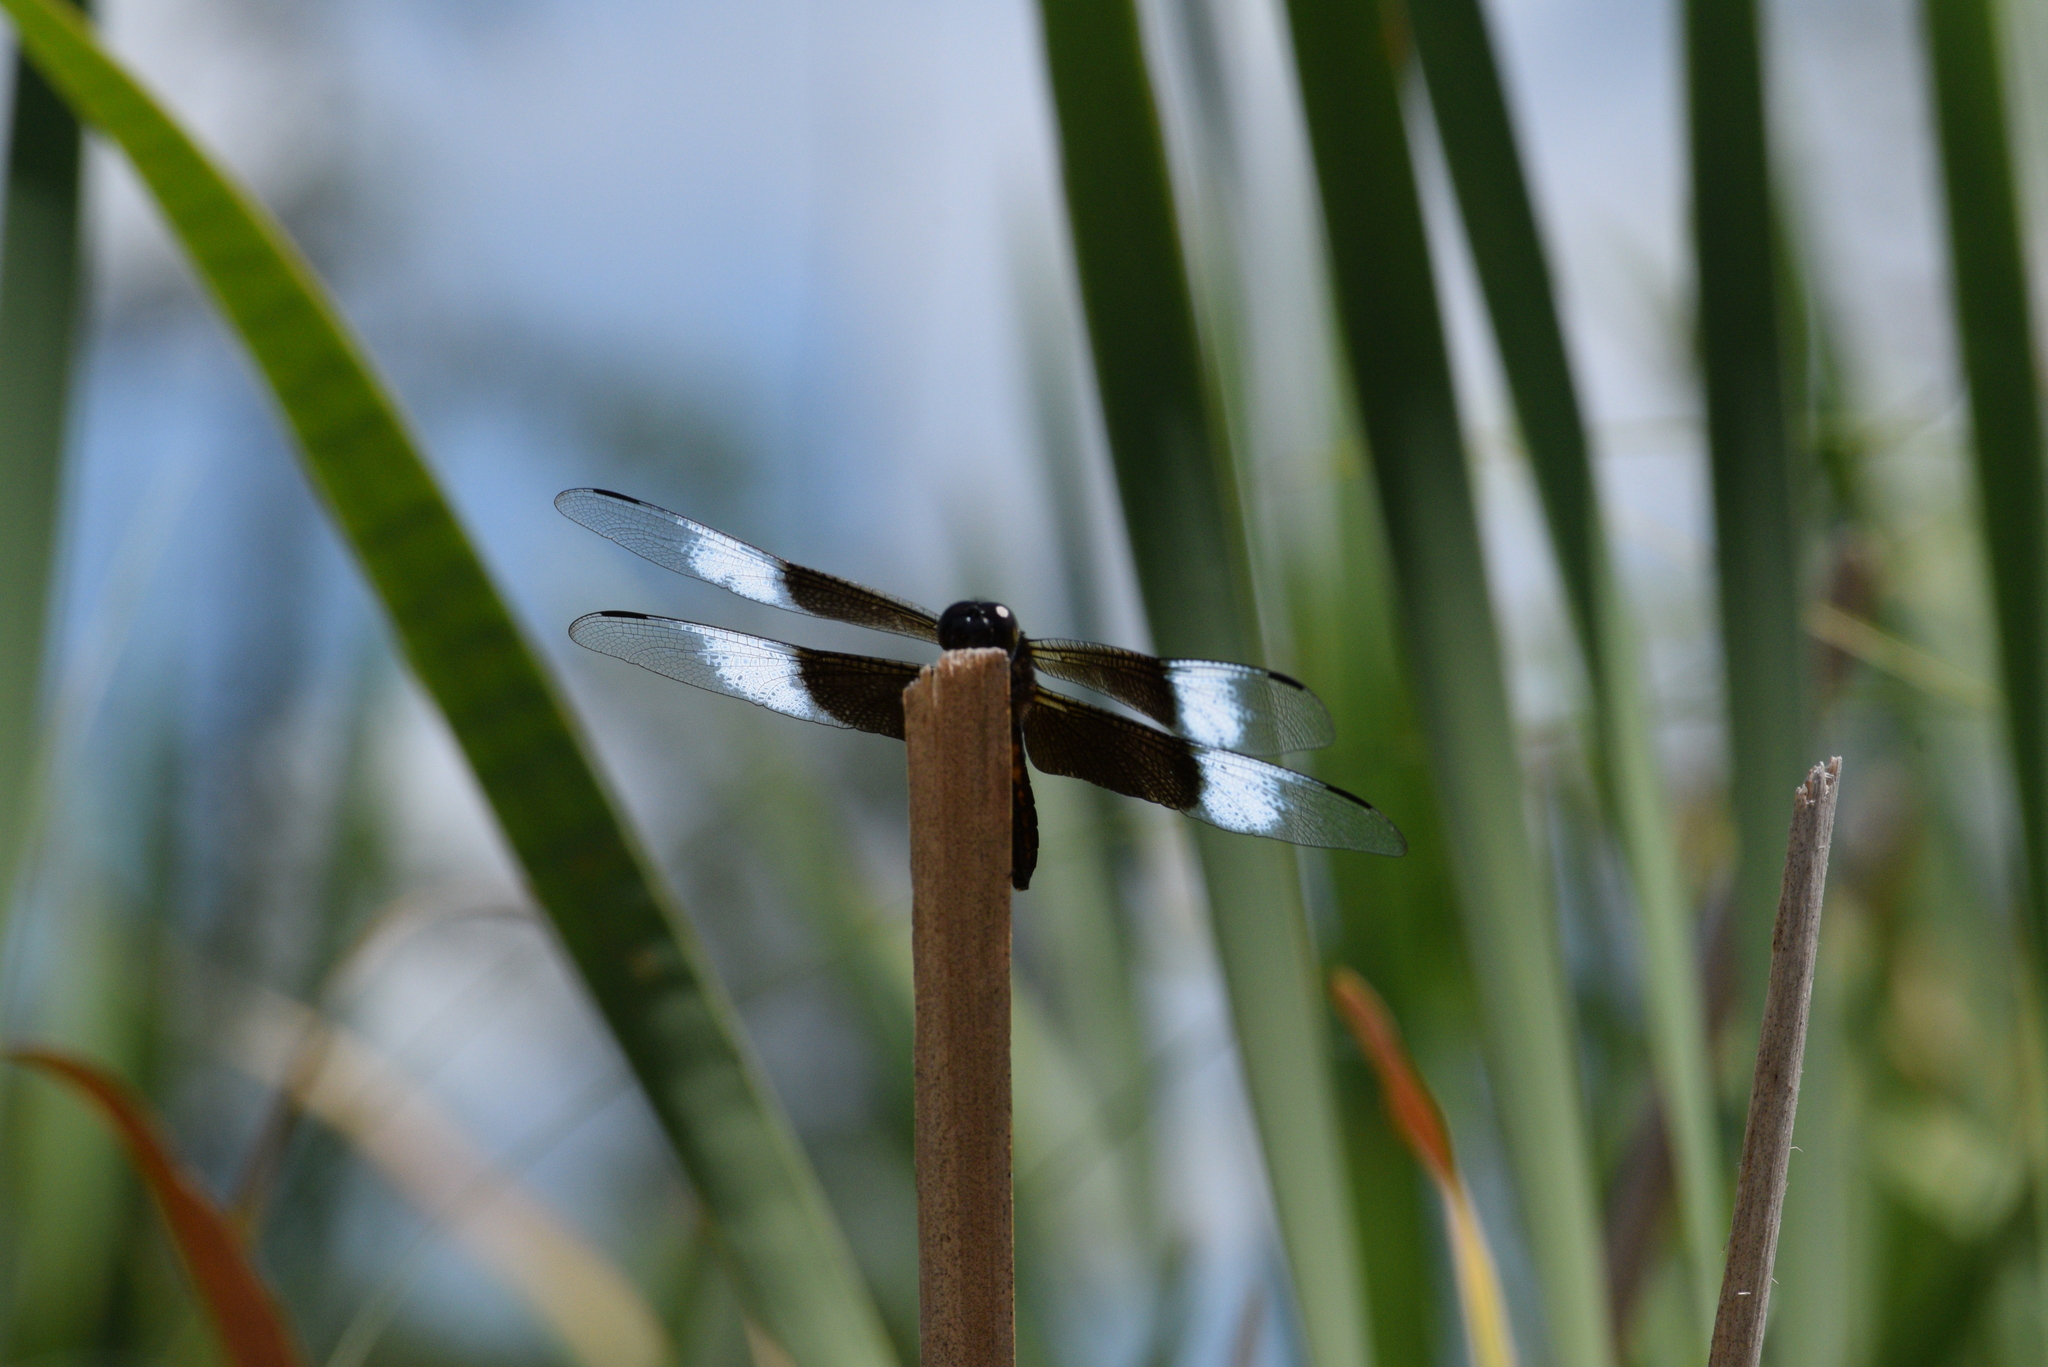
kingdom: Animalia
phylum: Arthropoda
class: Insecta
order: Odonata
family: Libellulidae
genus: Libellula
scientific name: Libellula luctuosa
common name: Widow skimmer
